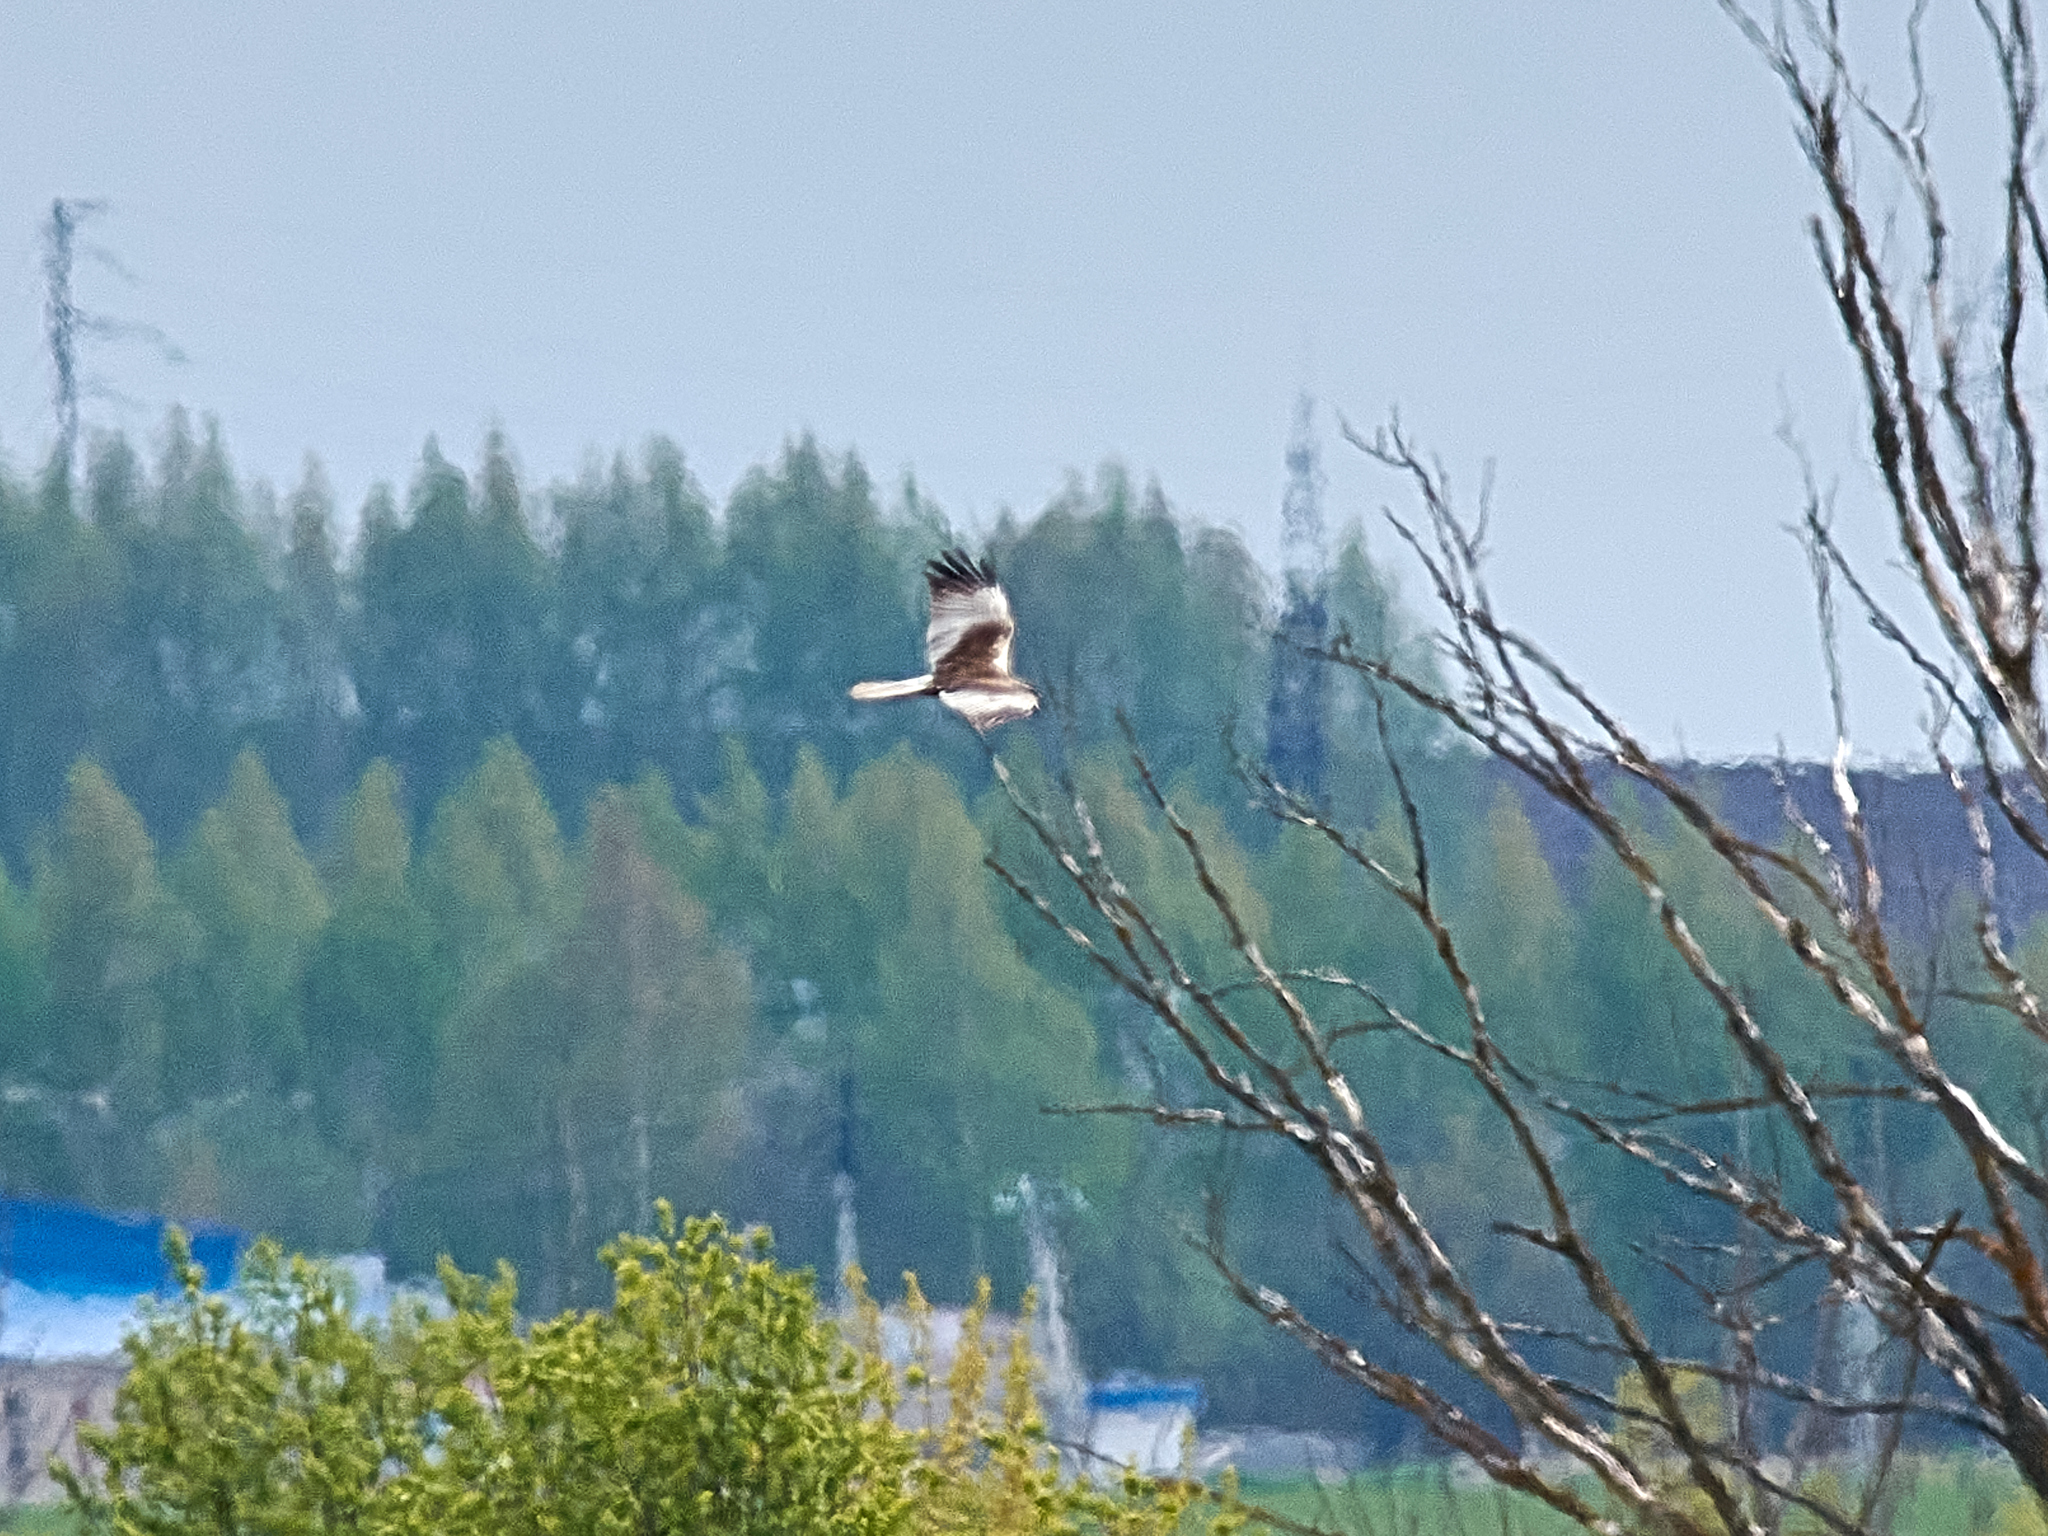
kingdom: Animalia
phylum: Chordata
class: Aves
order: Accipitriformes
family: Accipitridae
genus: Circus
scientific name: Circus aeruginosus
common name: Western marsh harrier
